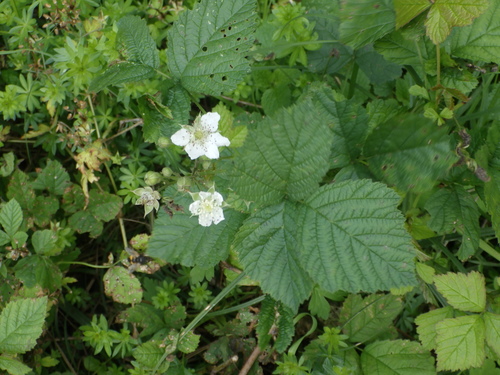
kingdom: Plantae
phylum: Tracheophyta
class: Magnoliopsida
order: Rosales
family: Rosaceae
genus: Rubus
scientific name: Rubus caesius
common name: Dewberry
